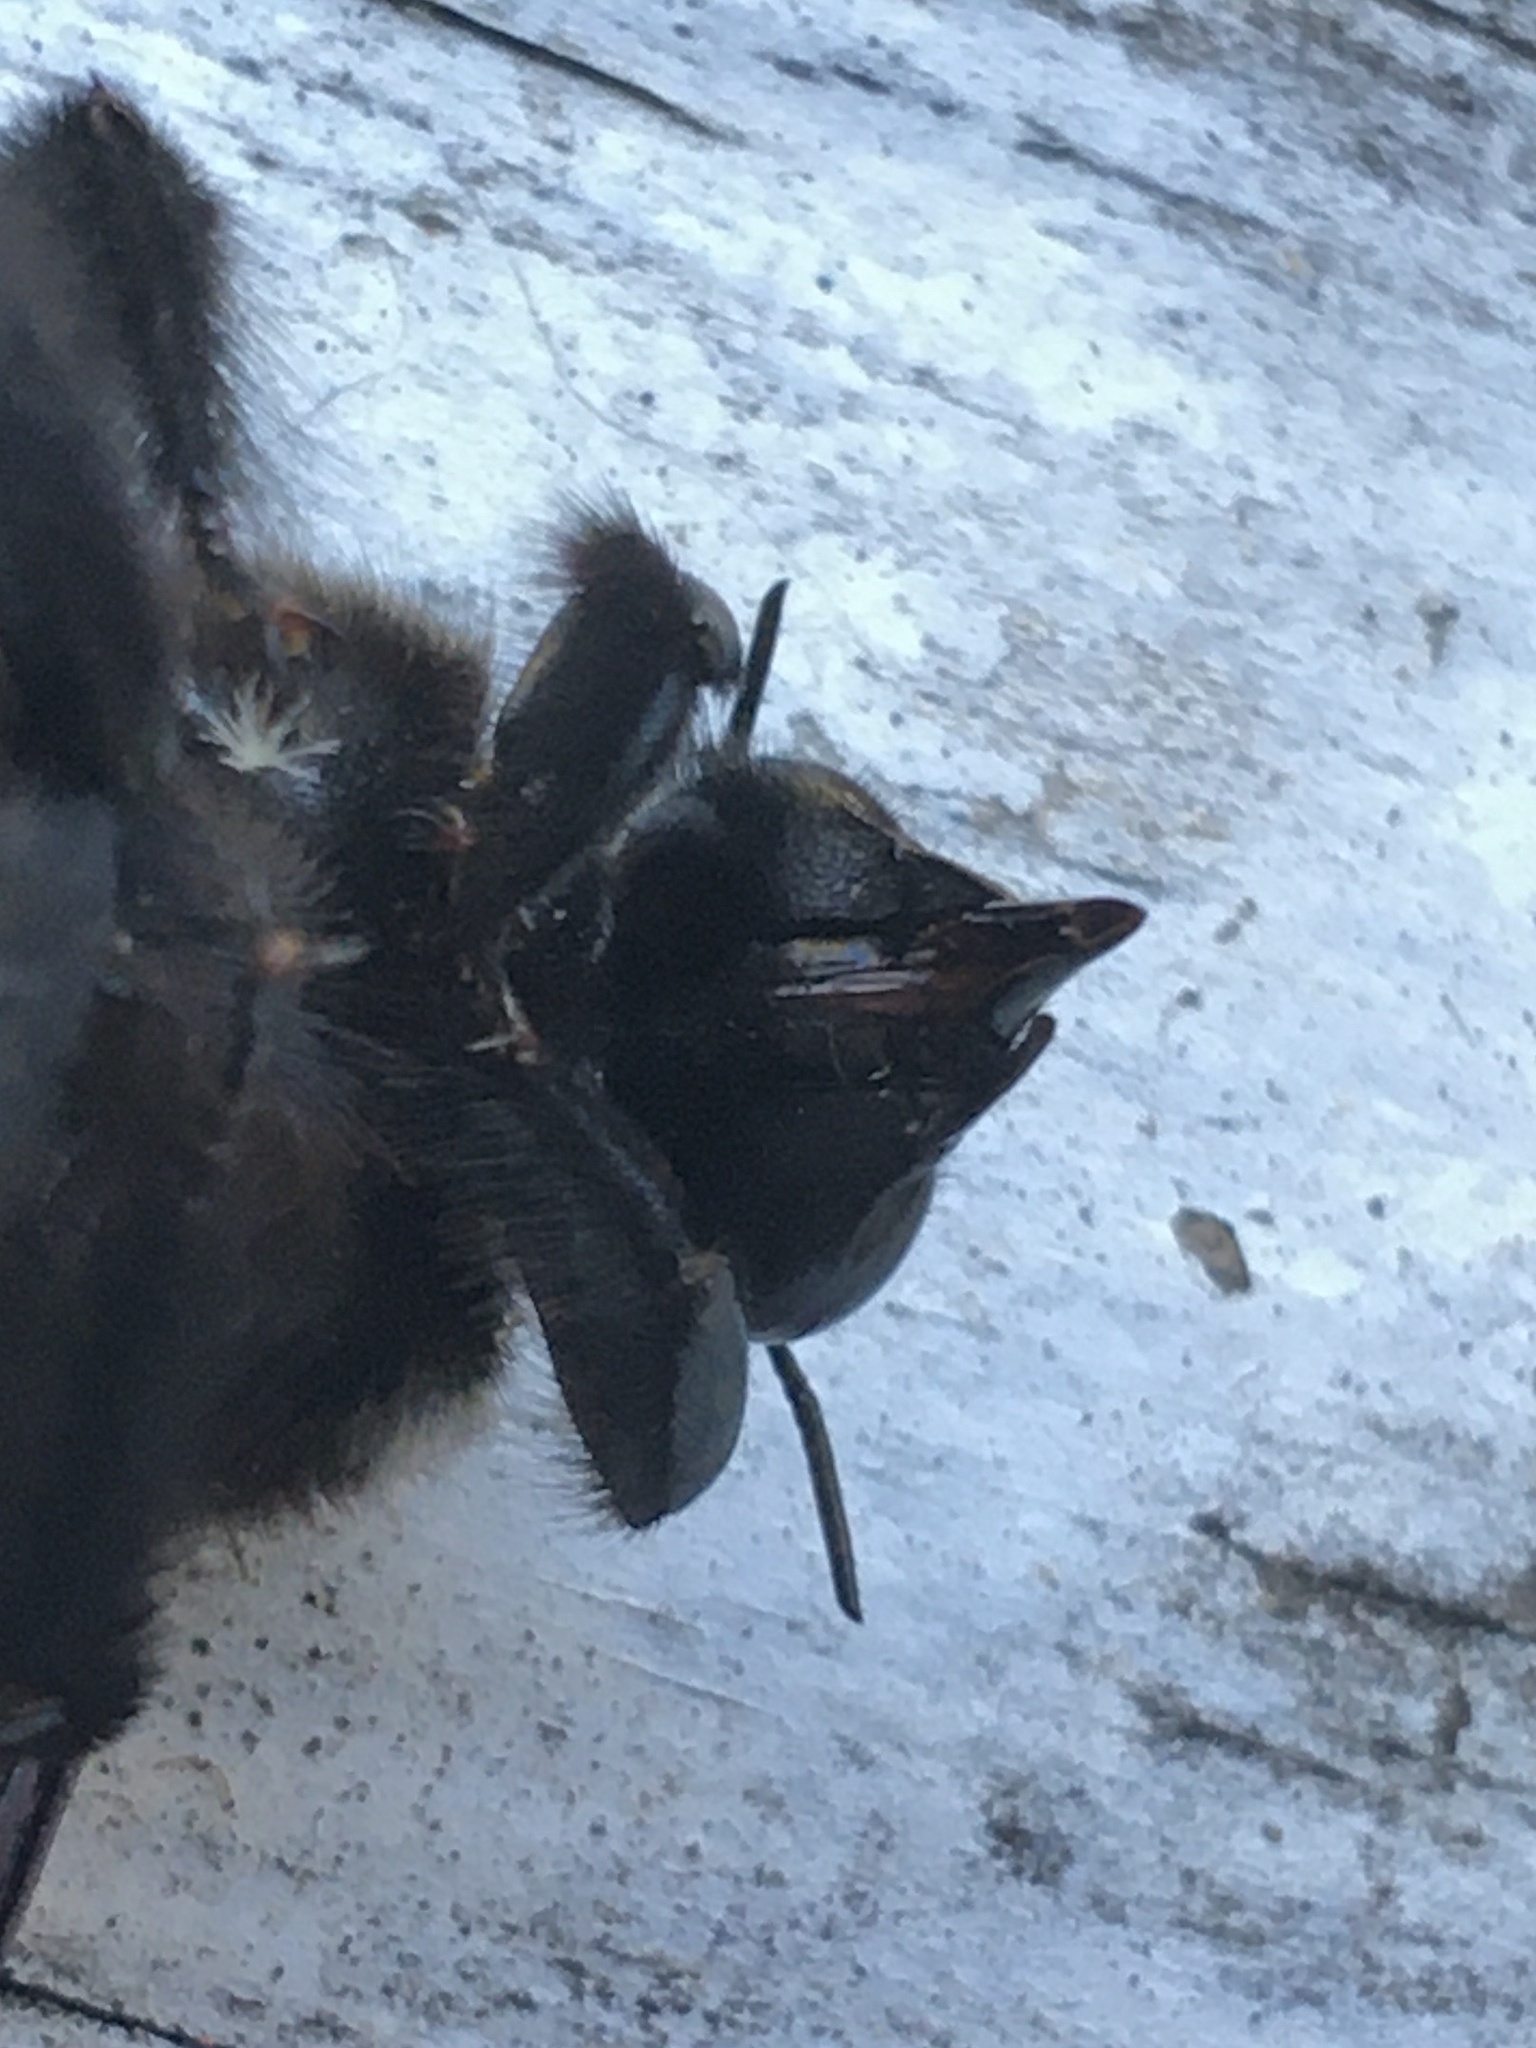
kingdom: Animalia
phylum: Arthropoda
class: Insecta
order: Hymenoptera
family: Apidae
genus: Xylocopa
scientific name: Xylocopa capitata
